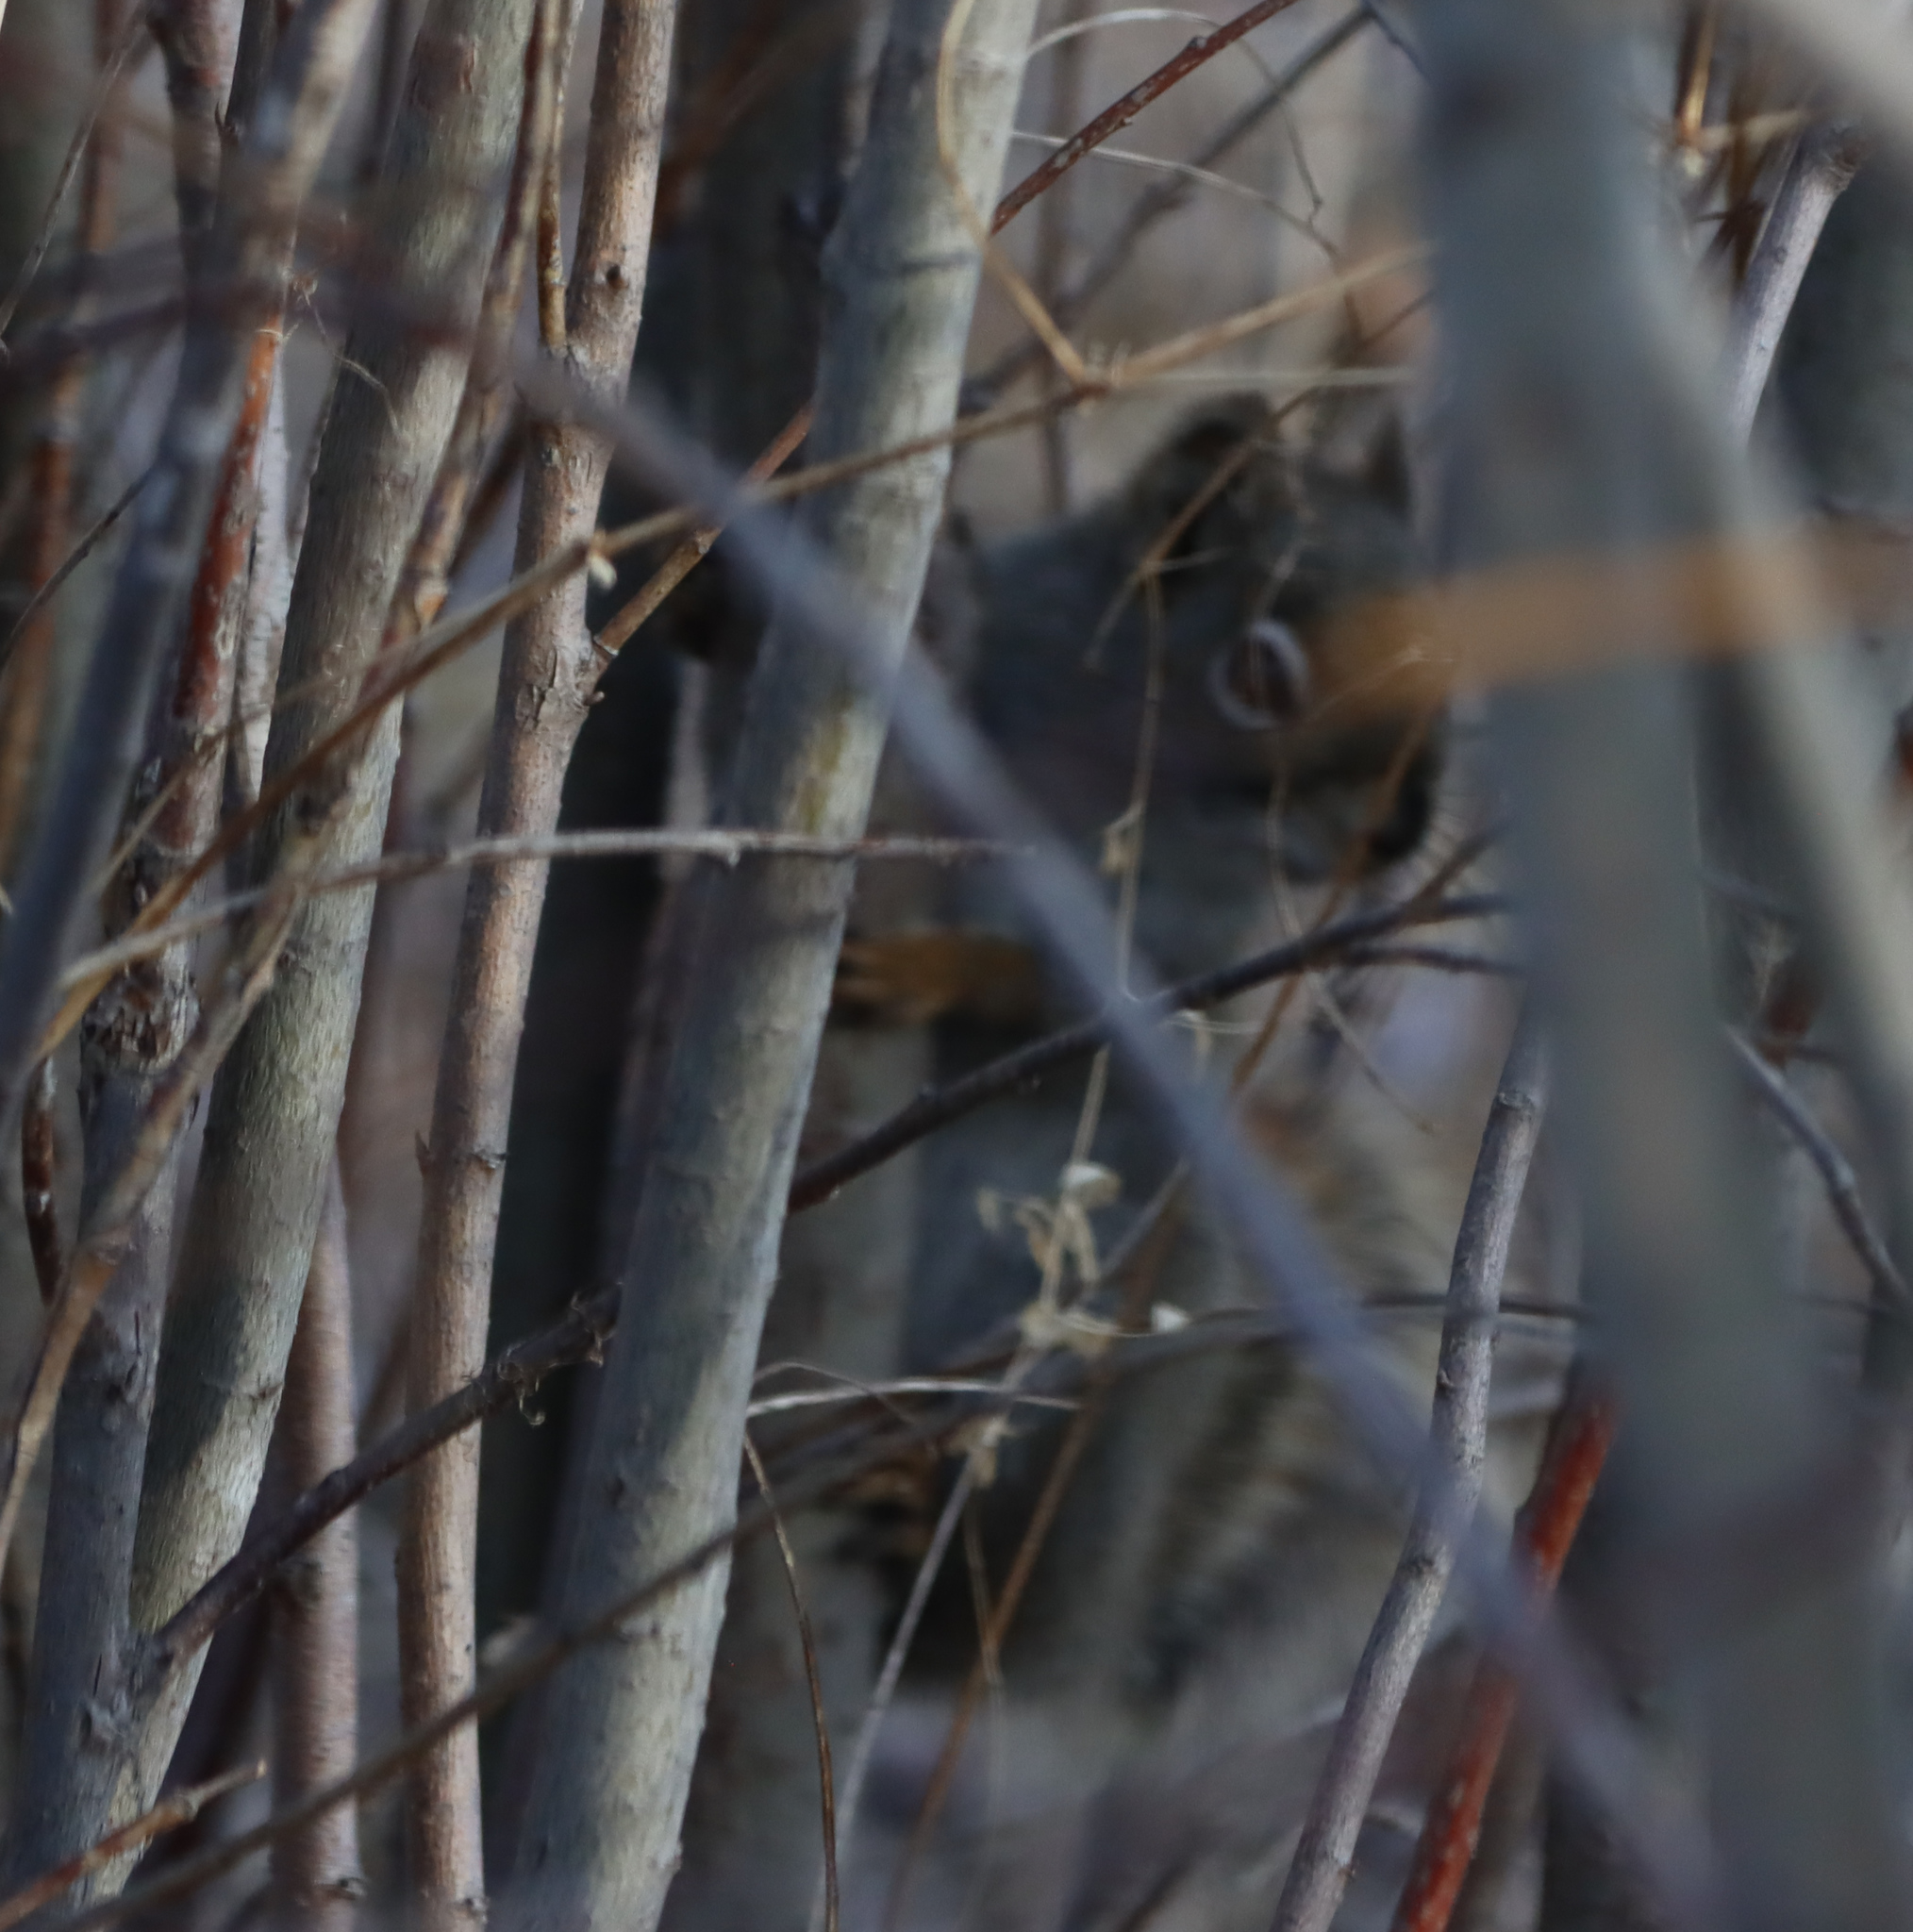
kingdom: Animalia
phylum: Chordata
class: Mammalia
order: Rodentia
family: Sciuridae
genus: Tamiasciurus
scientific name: Tamiasciurus hudsonicus
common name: Red squirrel
